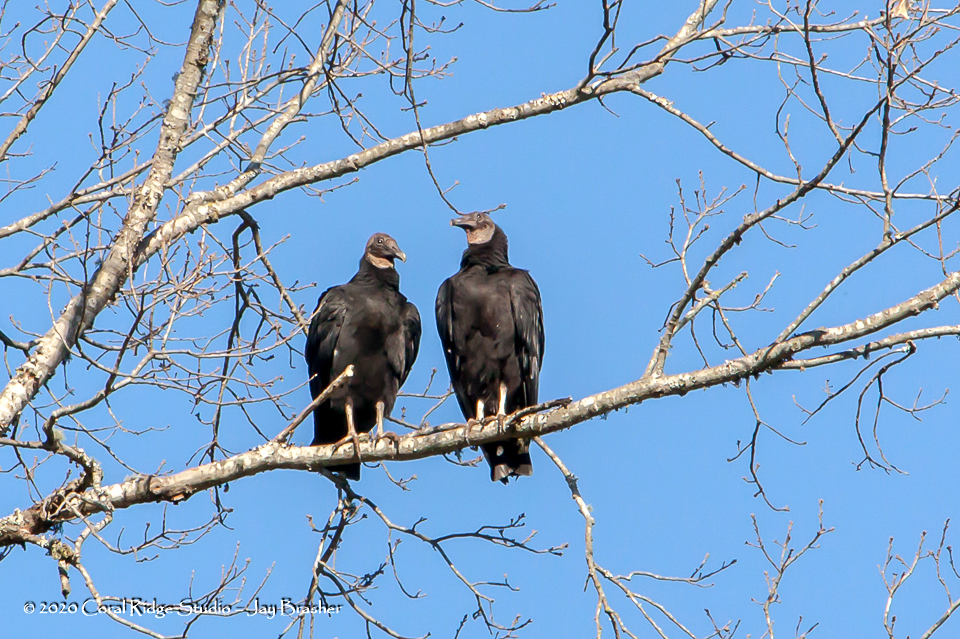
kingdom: Animalia
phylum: Chordata
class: Aves
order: Accipitriformes
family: Cathartidae
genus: Coragyps
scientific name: Coragyps atratus
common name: Black vulture
